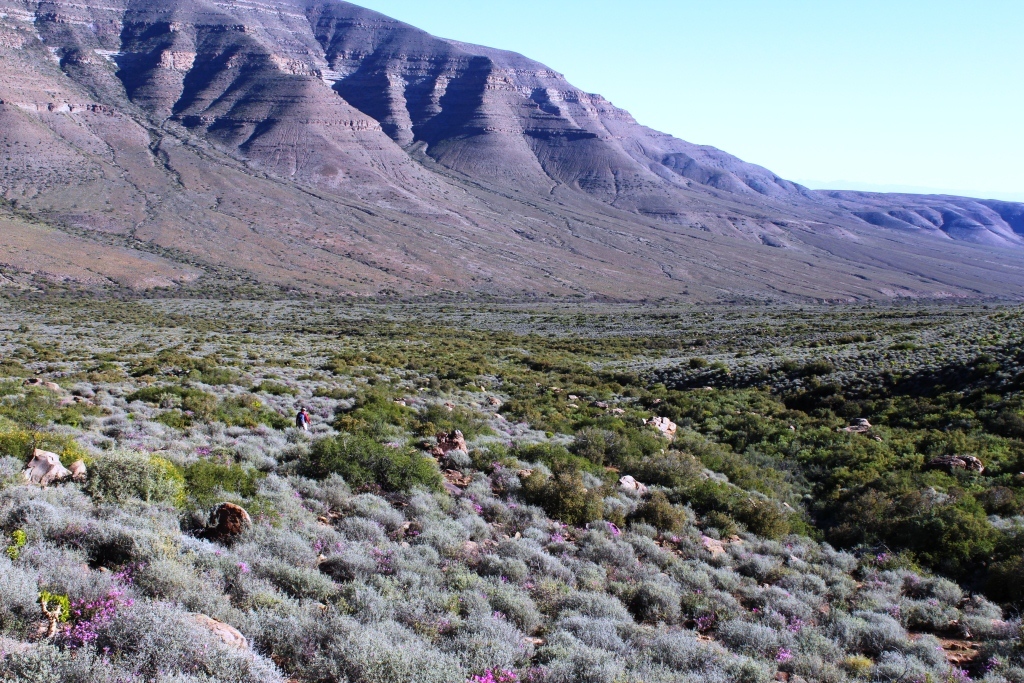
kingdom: Plantae
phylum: Tracheophyta
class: Magnoliopsida
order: Geraniales
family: Geraniaceae
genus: Pelargonium
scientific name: Pelargonium magenteum
